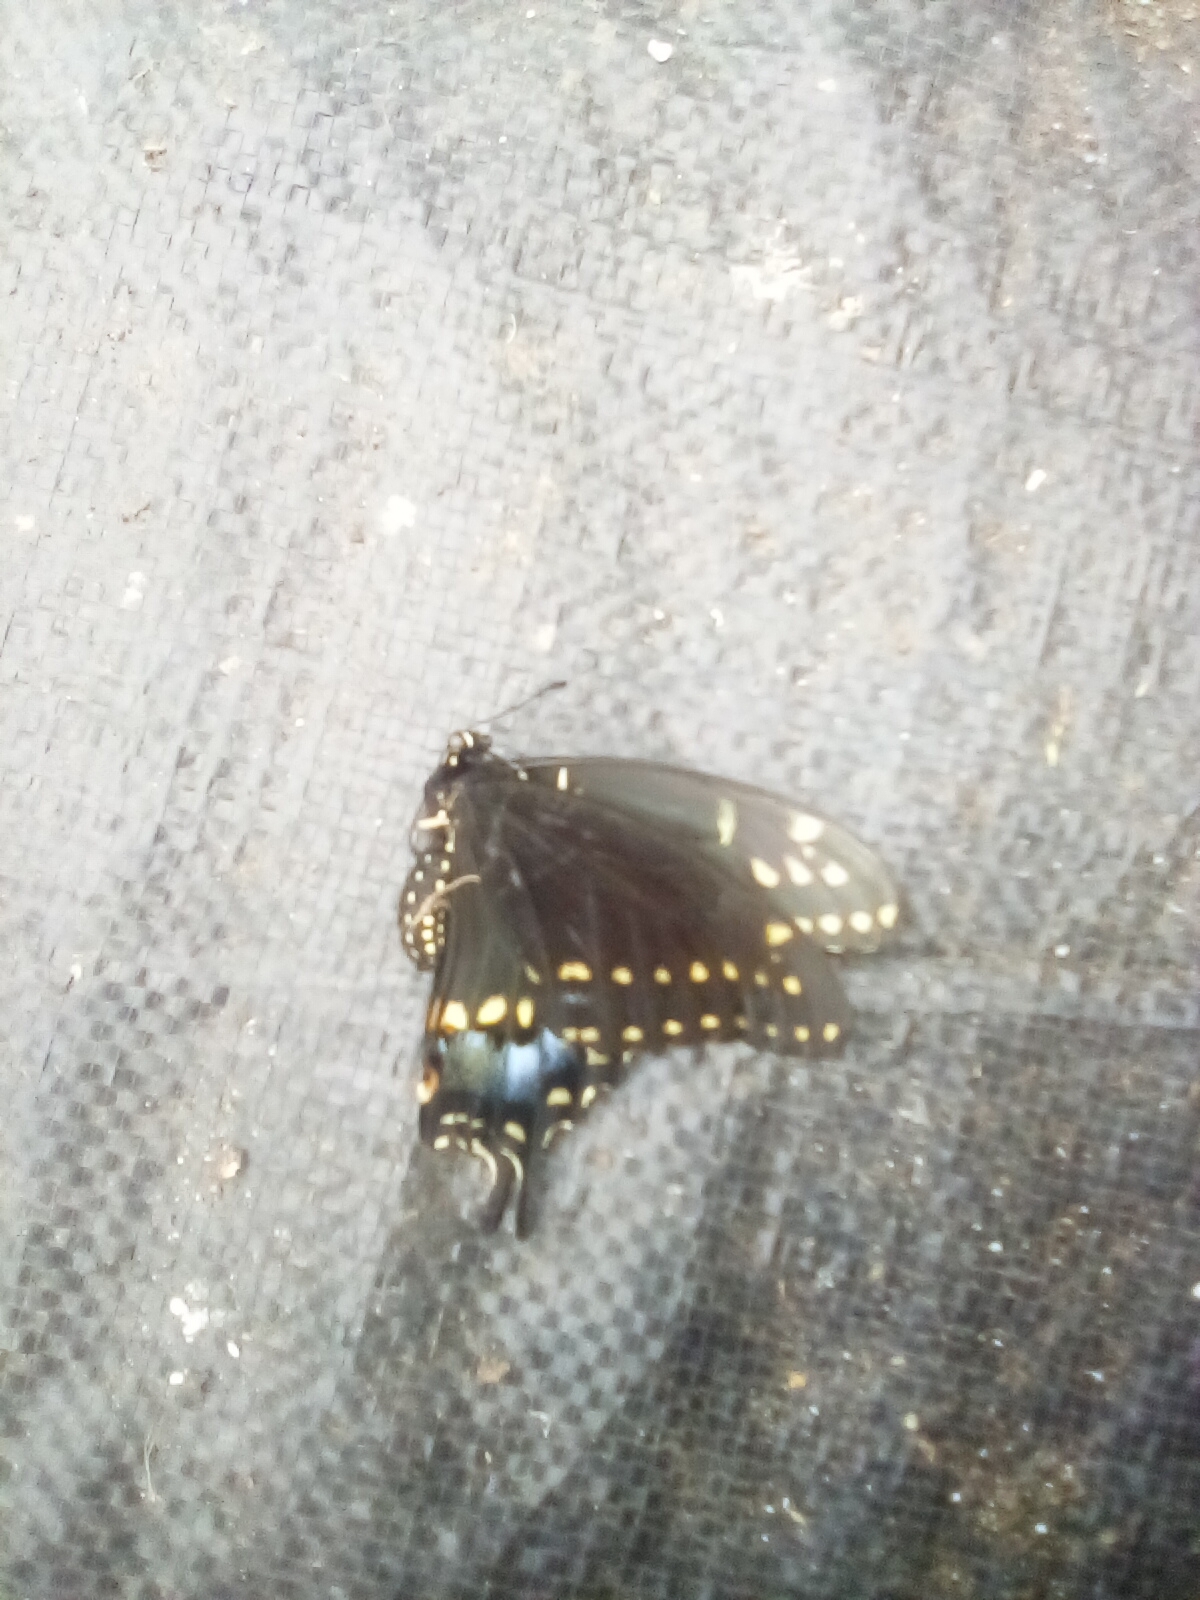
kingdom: Animalia
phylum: Arthropoda
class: Insecta
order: Lepidoptera
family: Papilionidae
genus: Papilio
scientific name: Papilio polyxenes
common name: Black swallowtail
